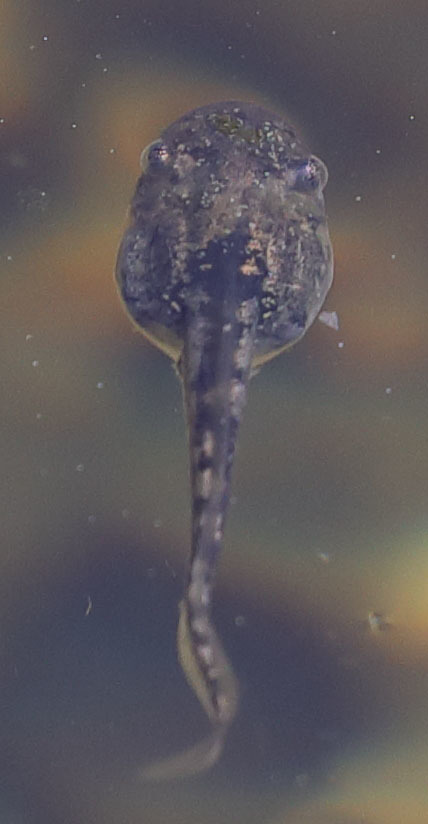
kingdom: Animalia
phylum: Chordata
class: Amphibia
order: Anura
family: Hylidae
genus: Pseudacris
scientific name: Pseudacris regilla
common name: Pacific chorus frog
